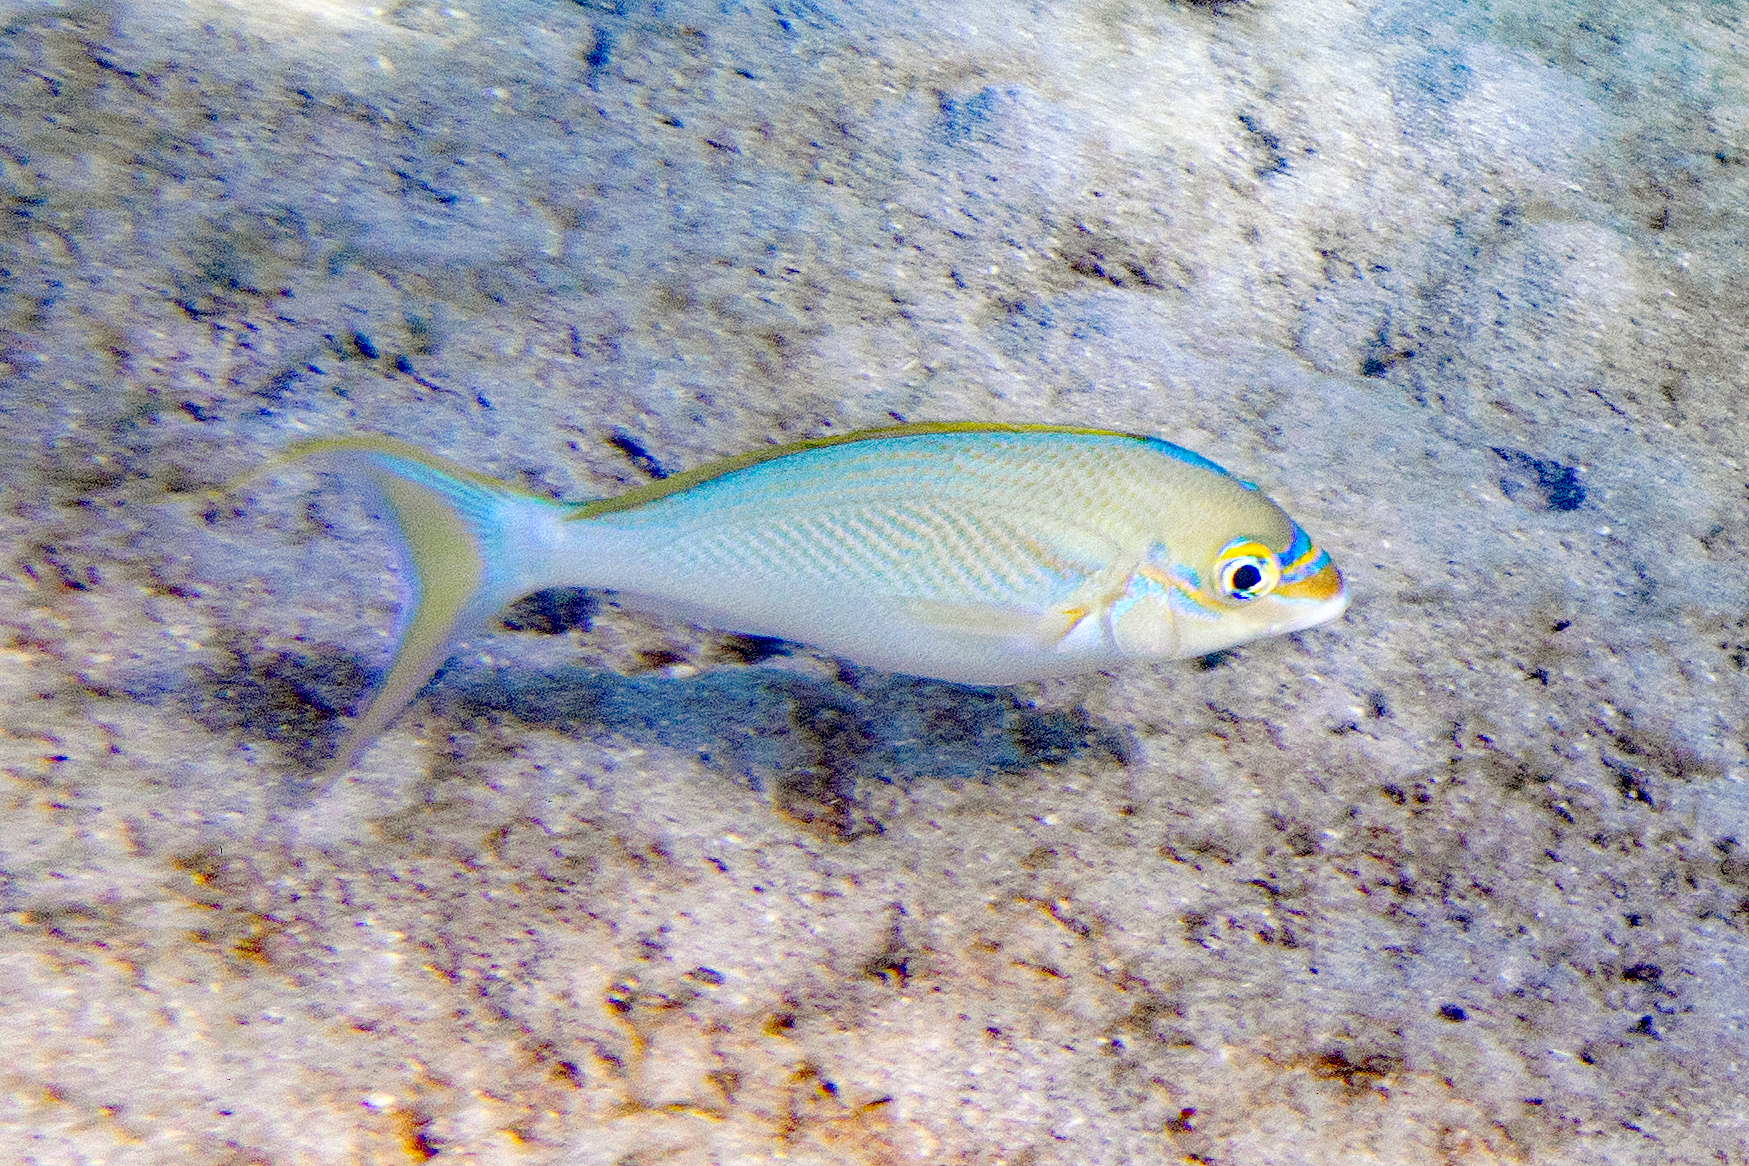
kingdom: Animalia
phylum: Chordata
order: Perciformes
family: Nemipteridae
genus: Scolopsis
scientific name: Scolopsis monogramma
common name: Monogrammed monocle bream
